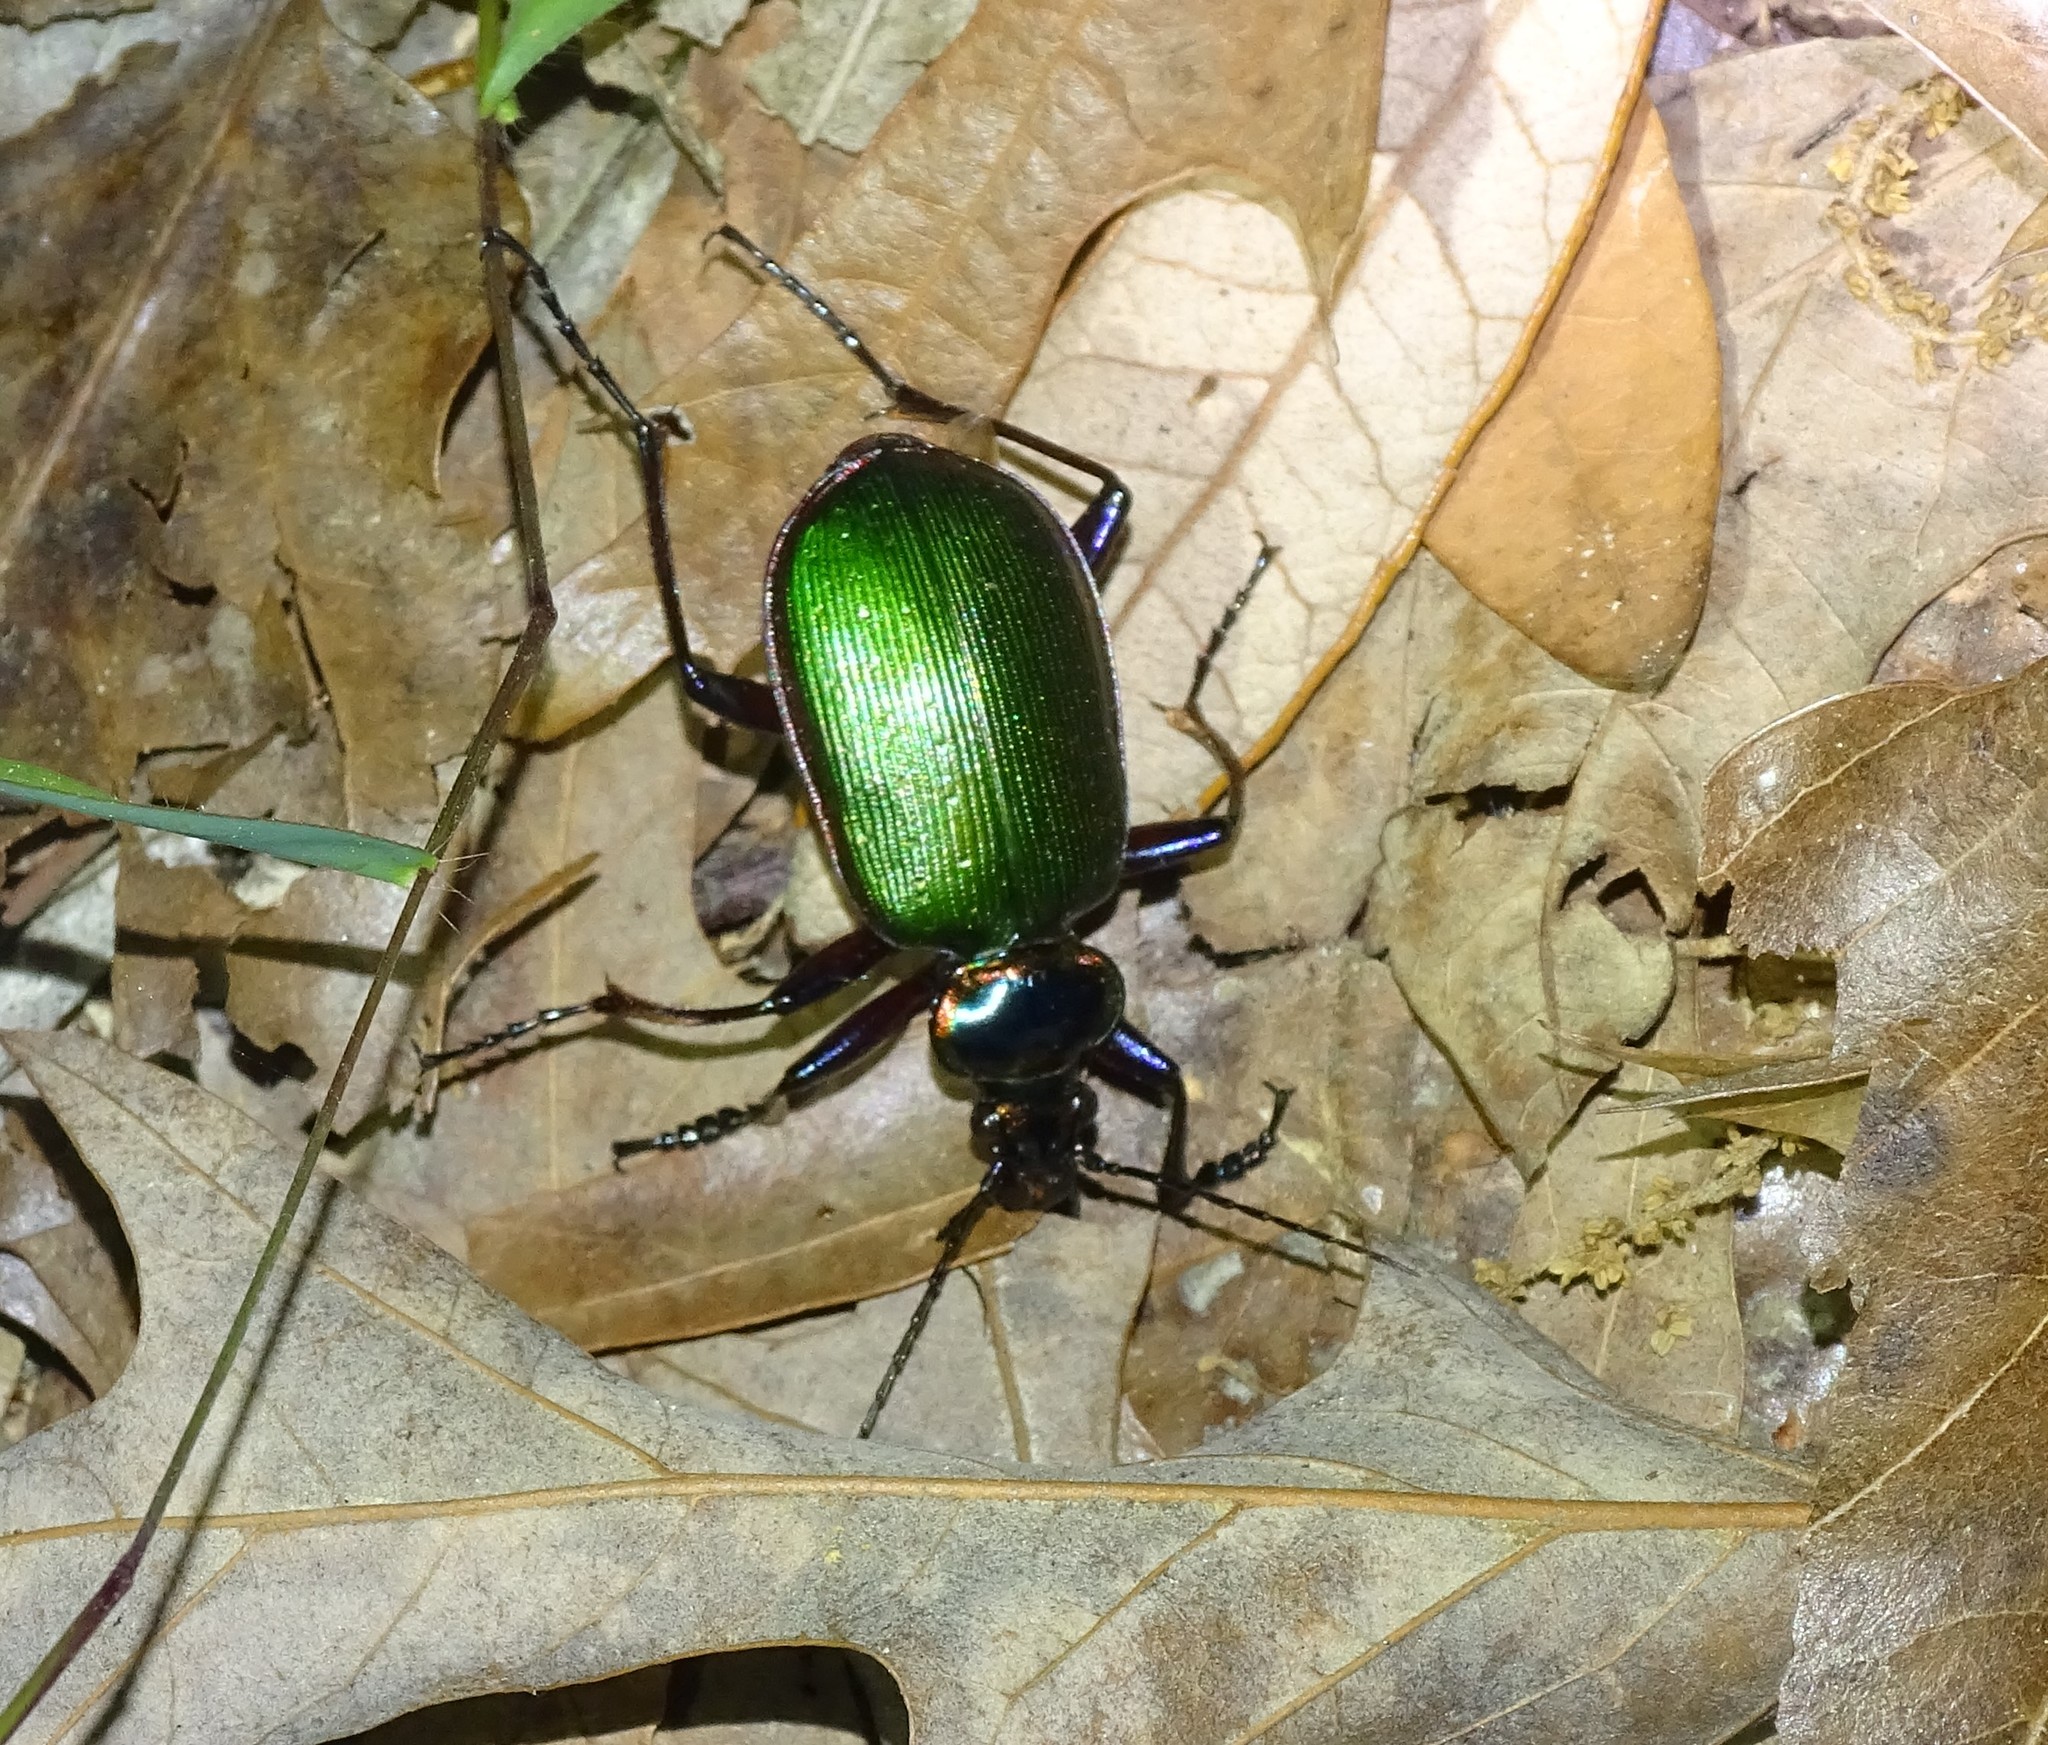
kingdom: Animalia
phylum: Arthropoda
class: Insecta
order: Coleoptera
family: Carabidae
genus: Calosoma
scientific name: Calosoma scrutator
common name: Fiery searcher beetle
